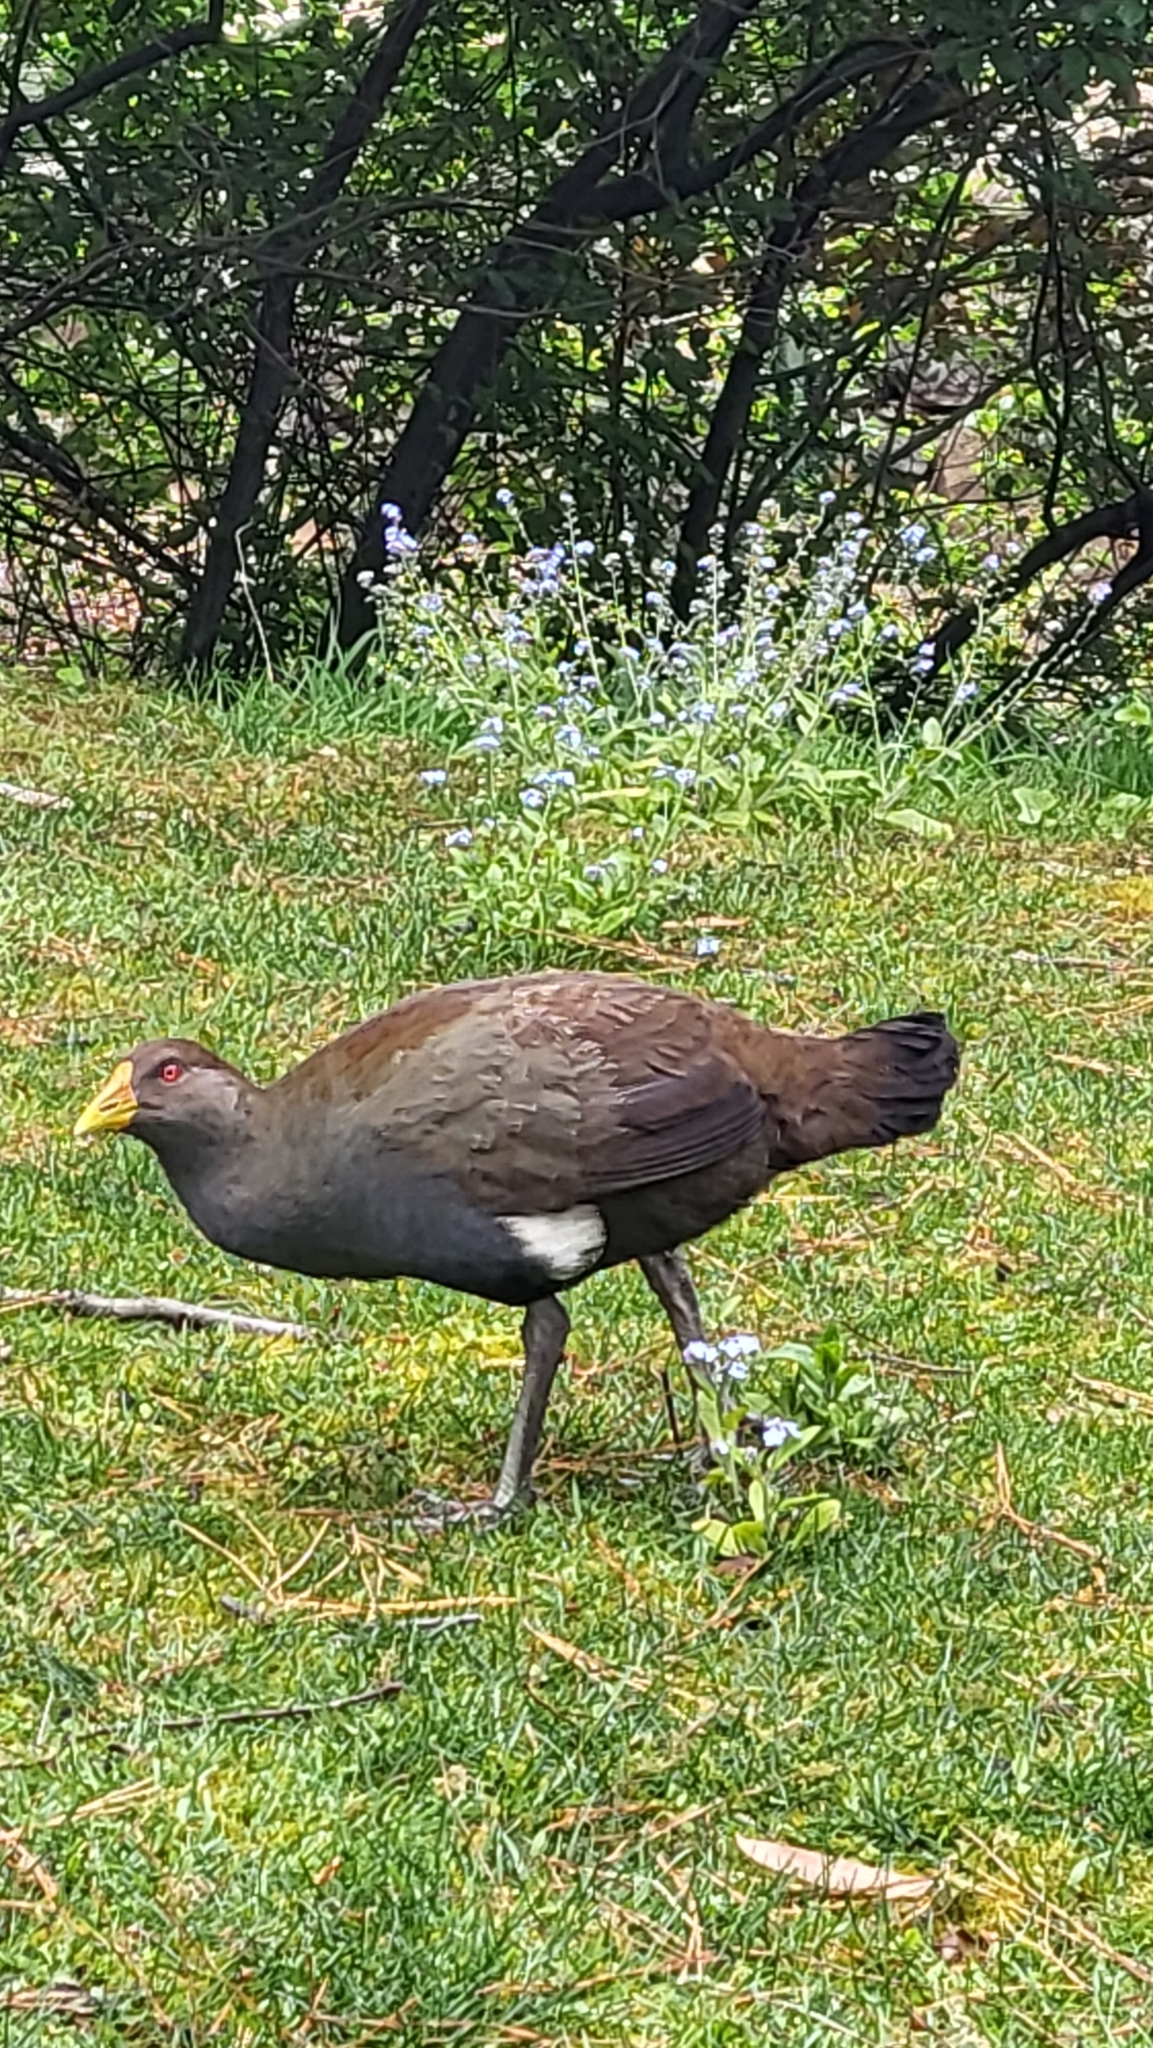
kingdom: Animalia
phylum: Chordata
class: Aves
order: Gruiformes
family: Rallidae
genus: Gallinula
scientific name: Gallinula mortierii
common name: Tasmanian nativehen
